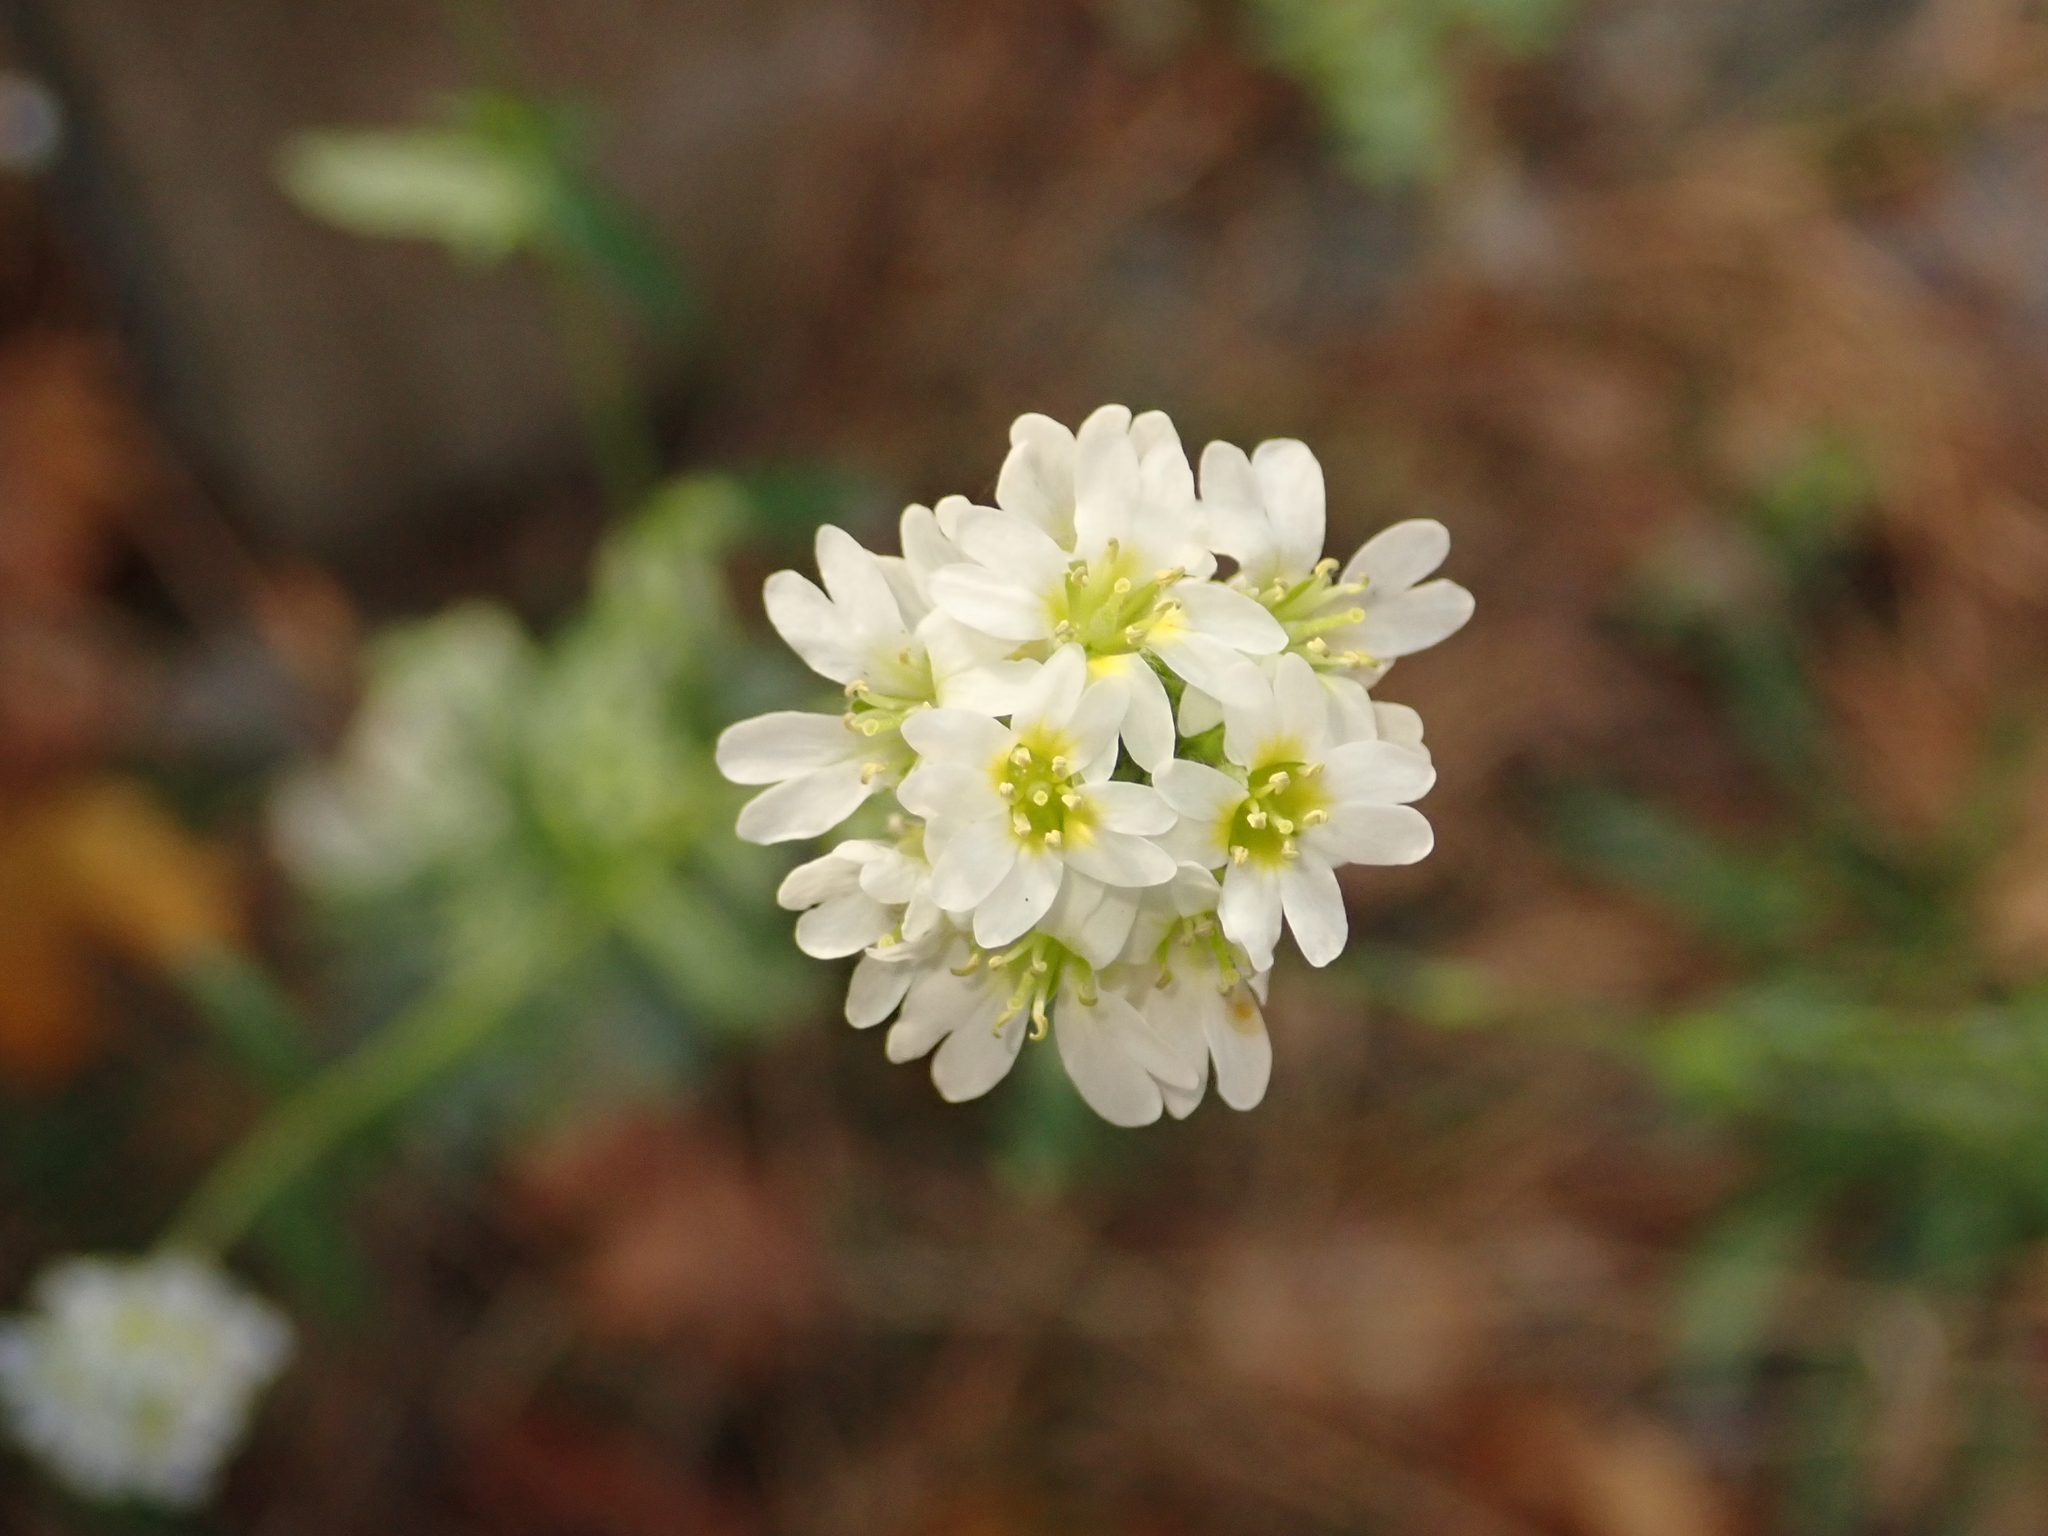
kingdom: Plantae
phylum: Tracheophyta
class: Magnoliopsida
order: Brassicales
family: Brassicaceae
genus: Berteroa
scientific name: Berteroa incana
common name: Hoary alison
